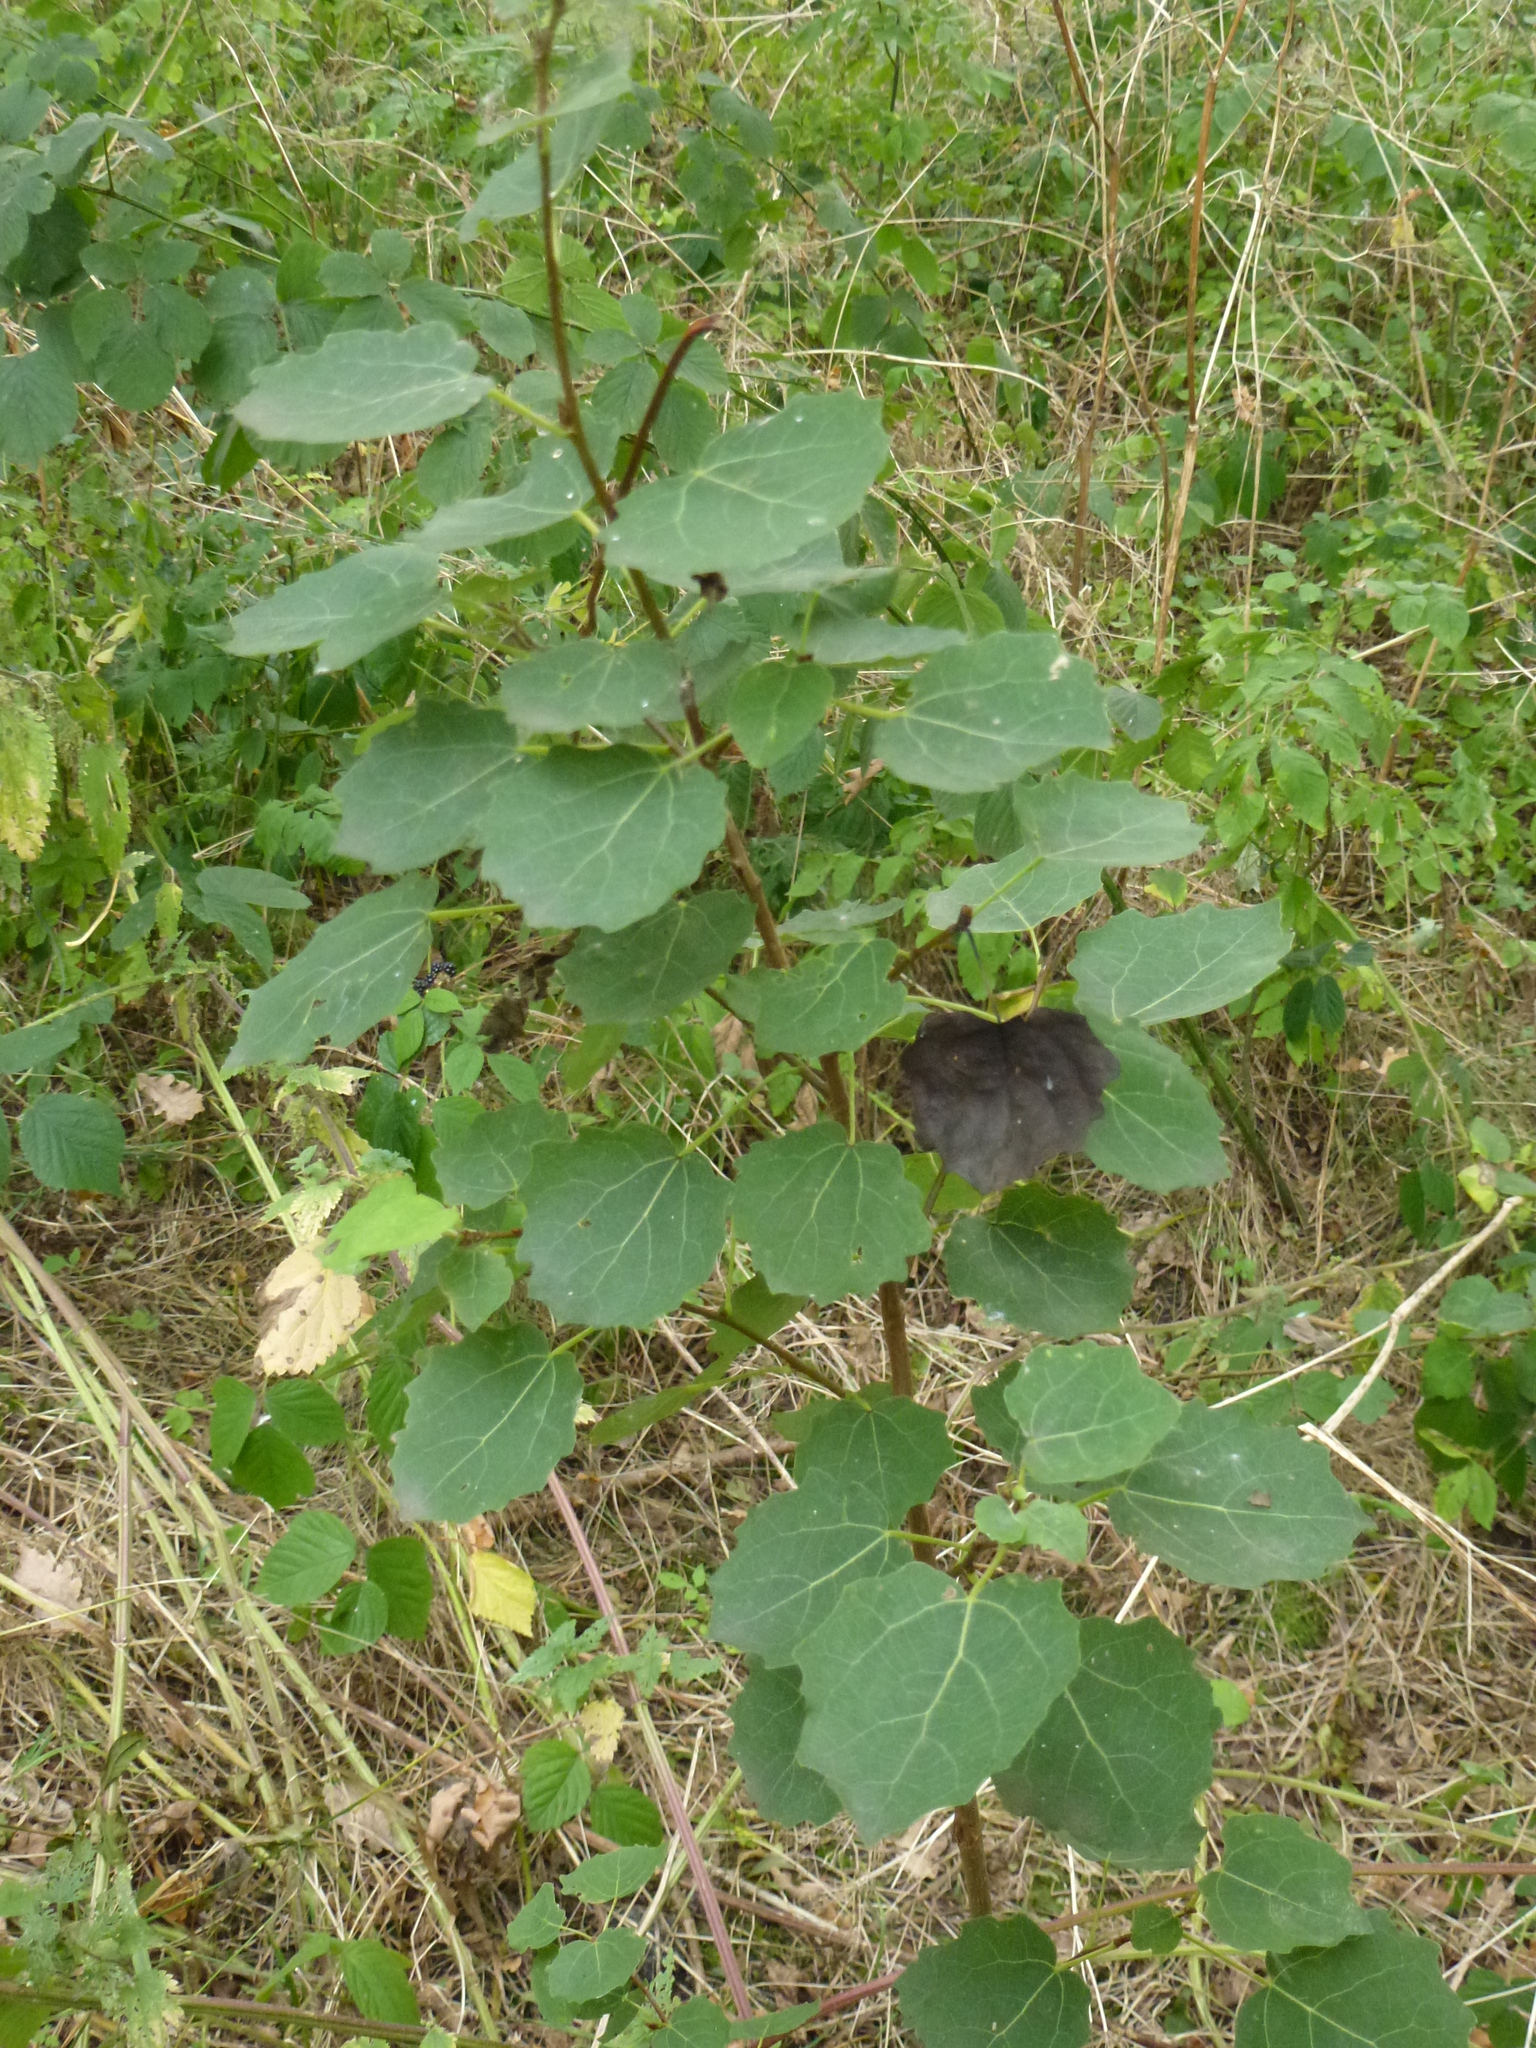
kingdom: Plantae
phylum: Tracheophyta
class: Magnoliopsida
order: Malpighiales
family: Salicaceae
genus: Populus
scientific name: Populus tremula
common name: European aspen
